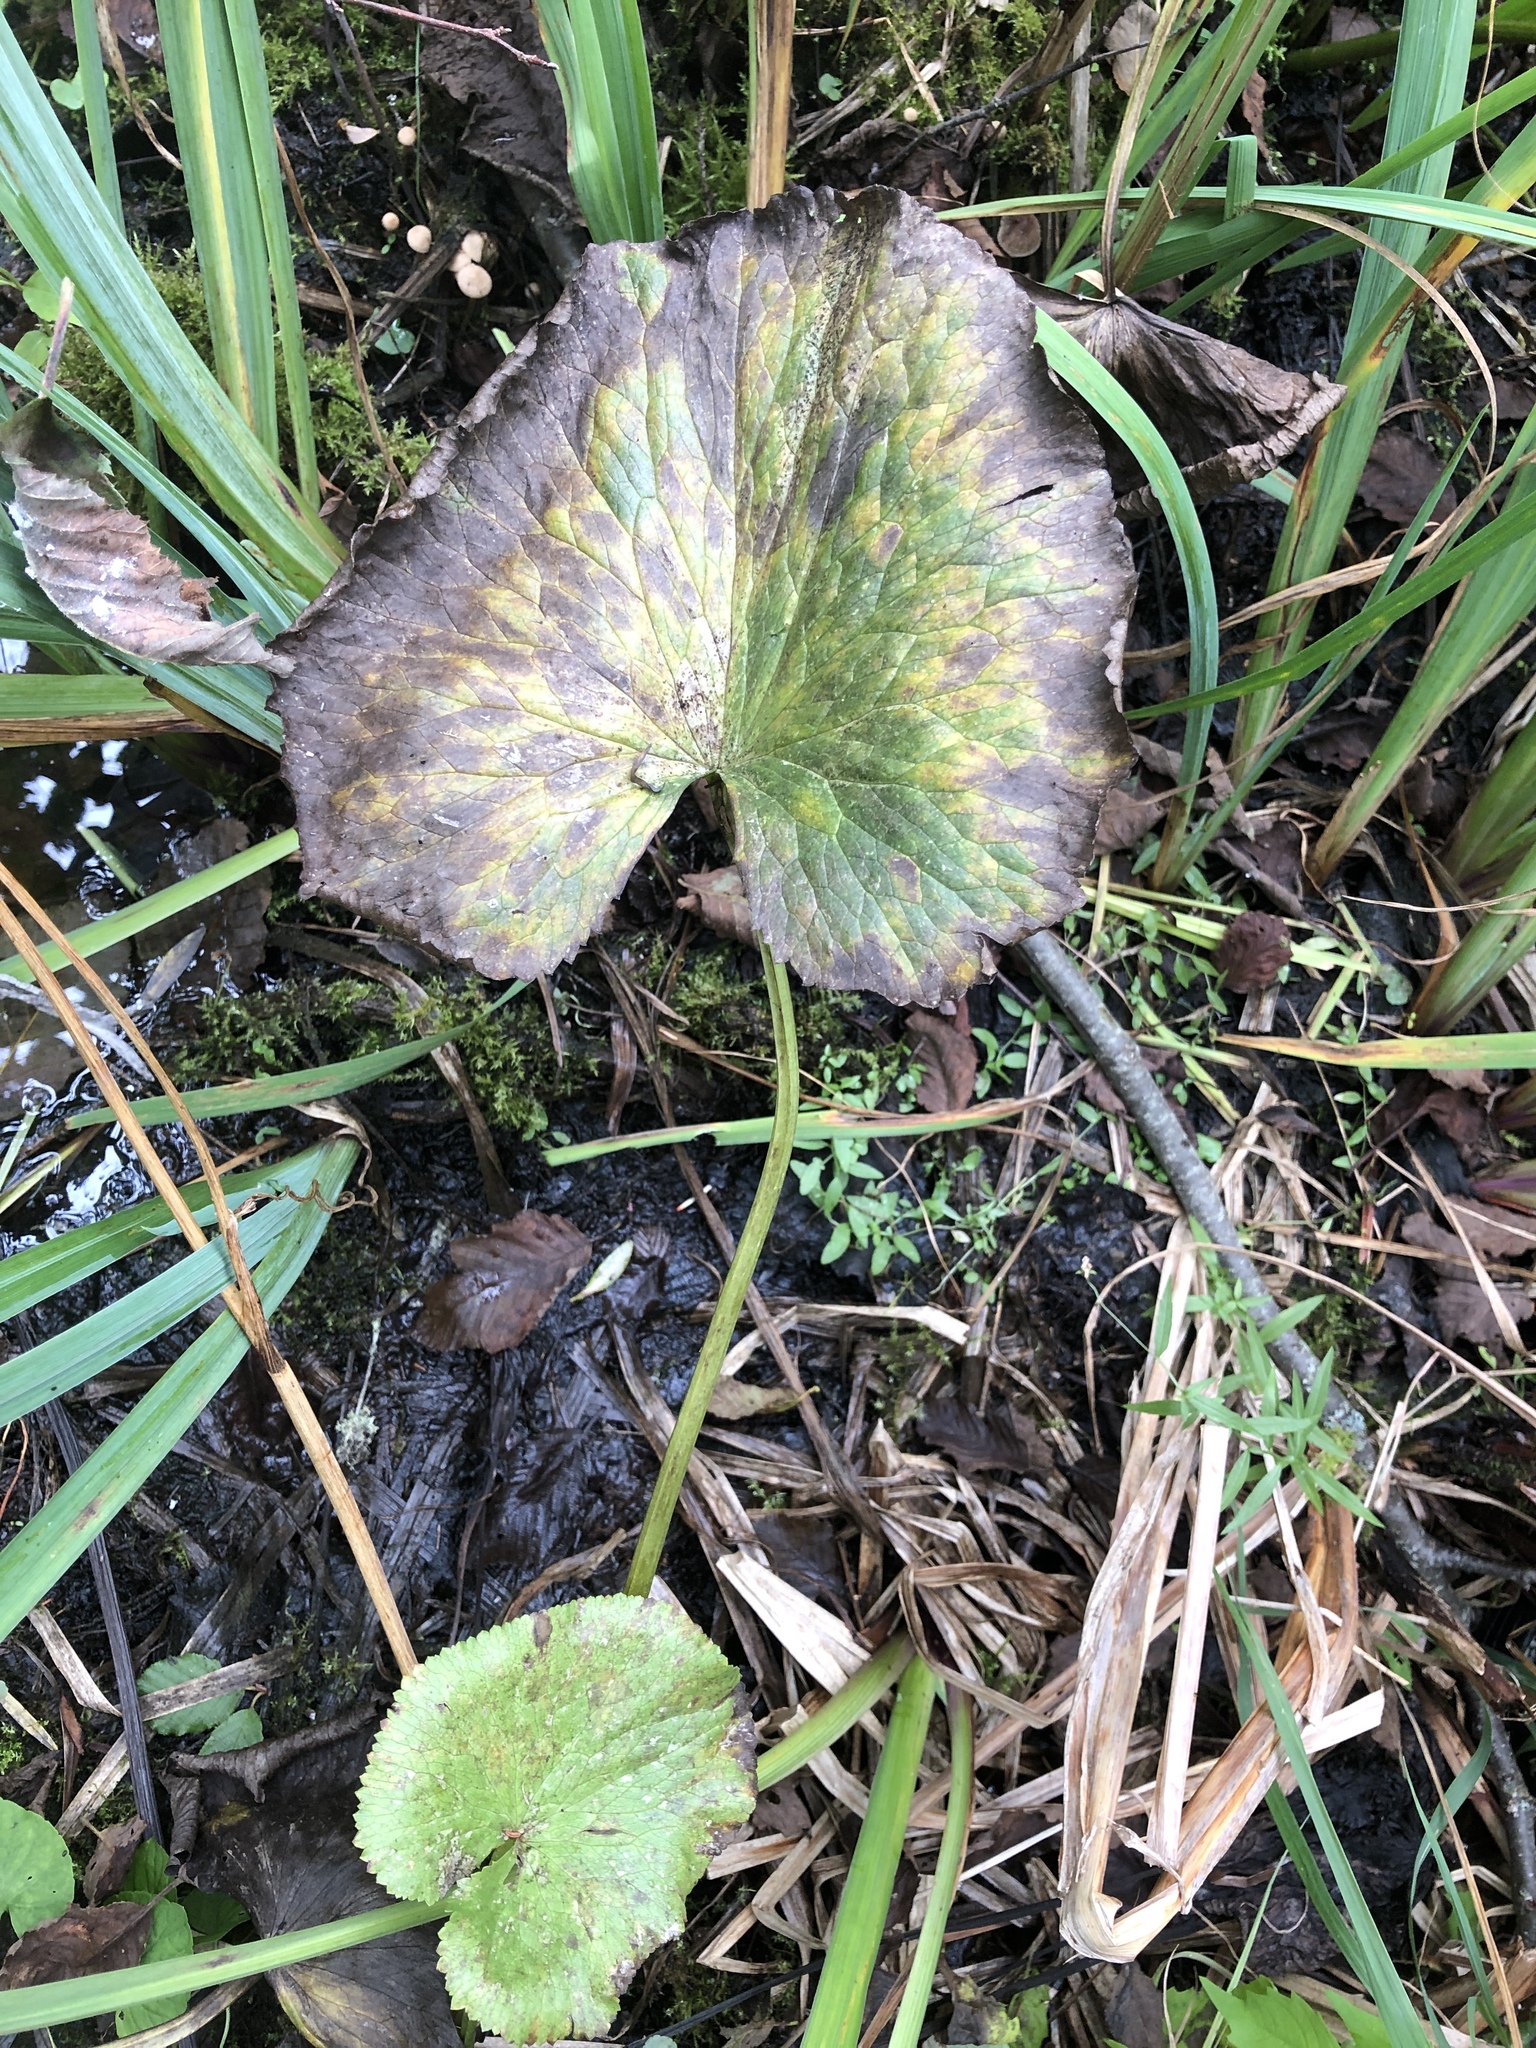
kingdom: Plantae
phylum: Tracheophyta
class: Magnoliopsida
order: Ranunculales
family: Ranunculaceae
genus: Caltha
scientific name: Caltha palustris
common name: Marsh marigold
